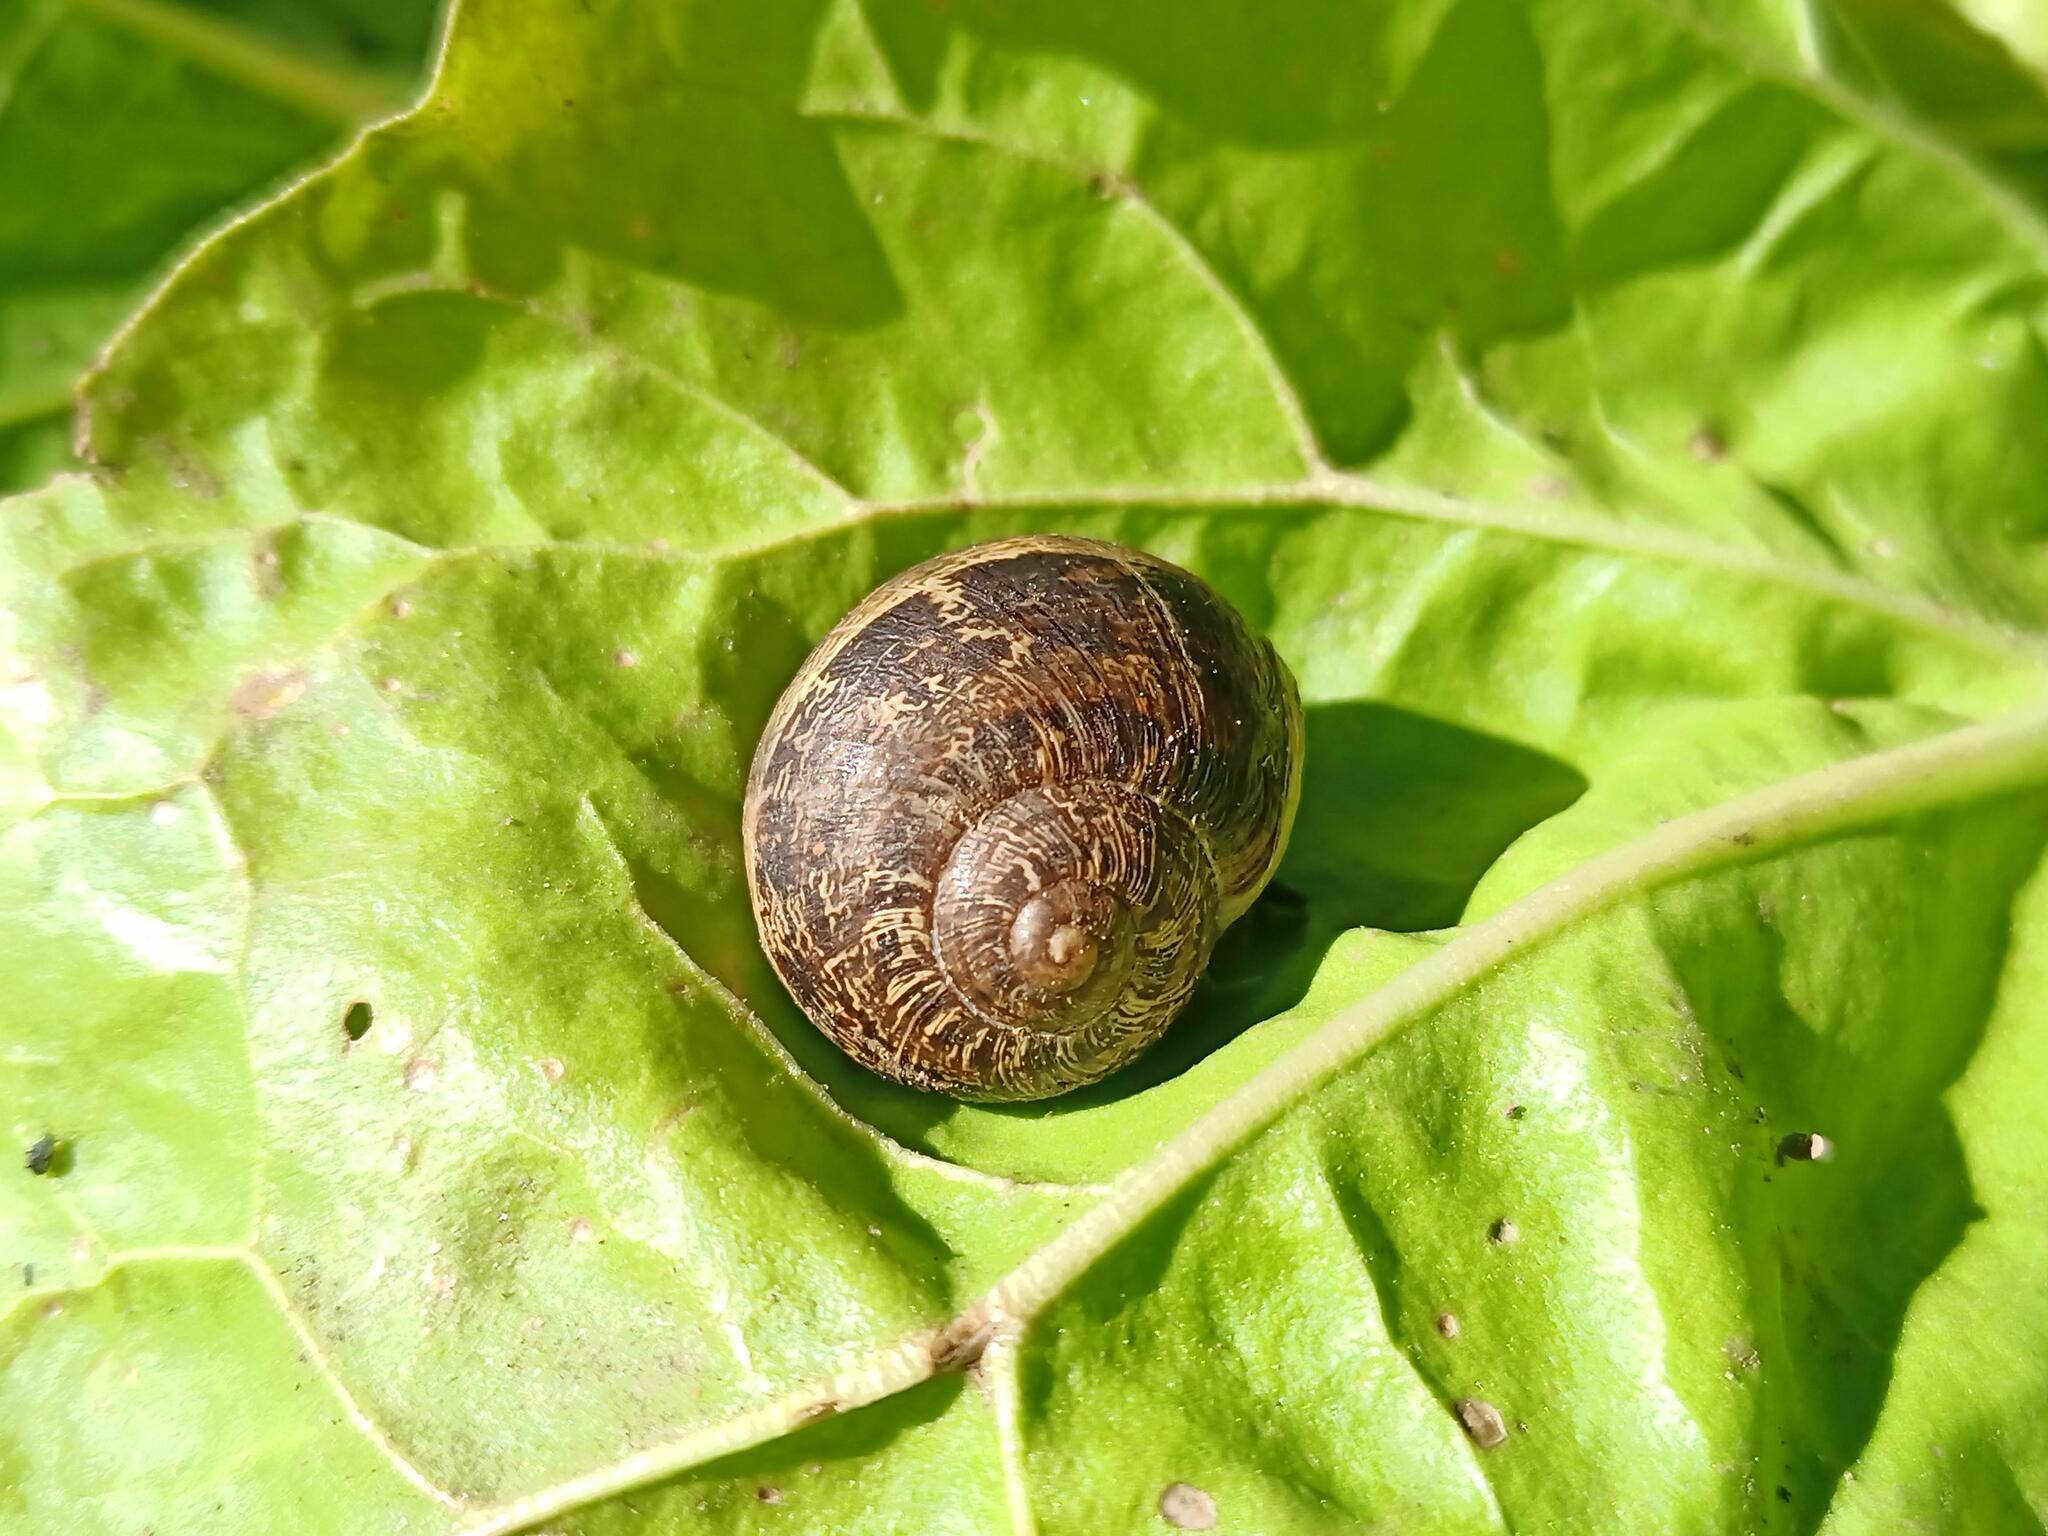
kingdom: Animalia
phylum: Mollusca
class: Gastropoda
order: Stylommatophora
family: Helicidae
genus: Cornu
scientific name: Cornu aspersum
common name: Brown garden snail
